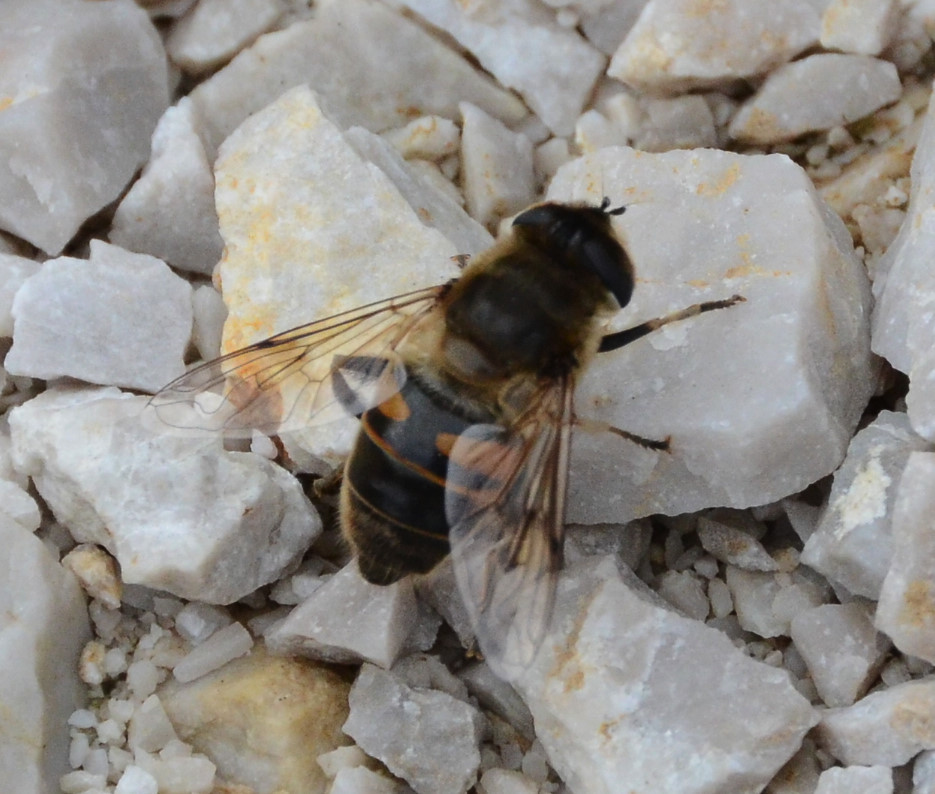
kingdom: Animalia
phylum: Arthropoda
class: Insecta
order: Diptera
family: Syrphidae
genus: Eristalis
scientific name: Eristalis tenax
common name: Drone fly
